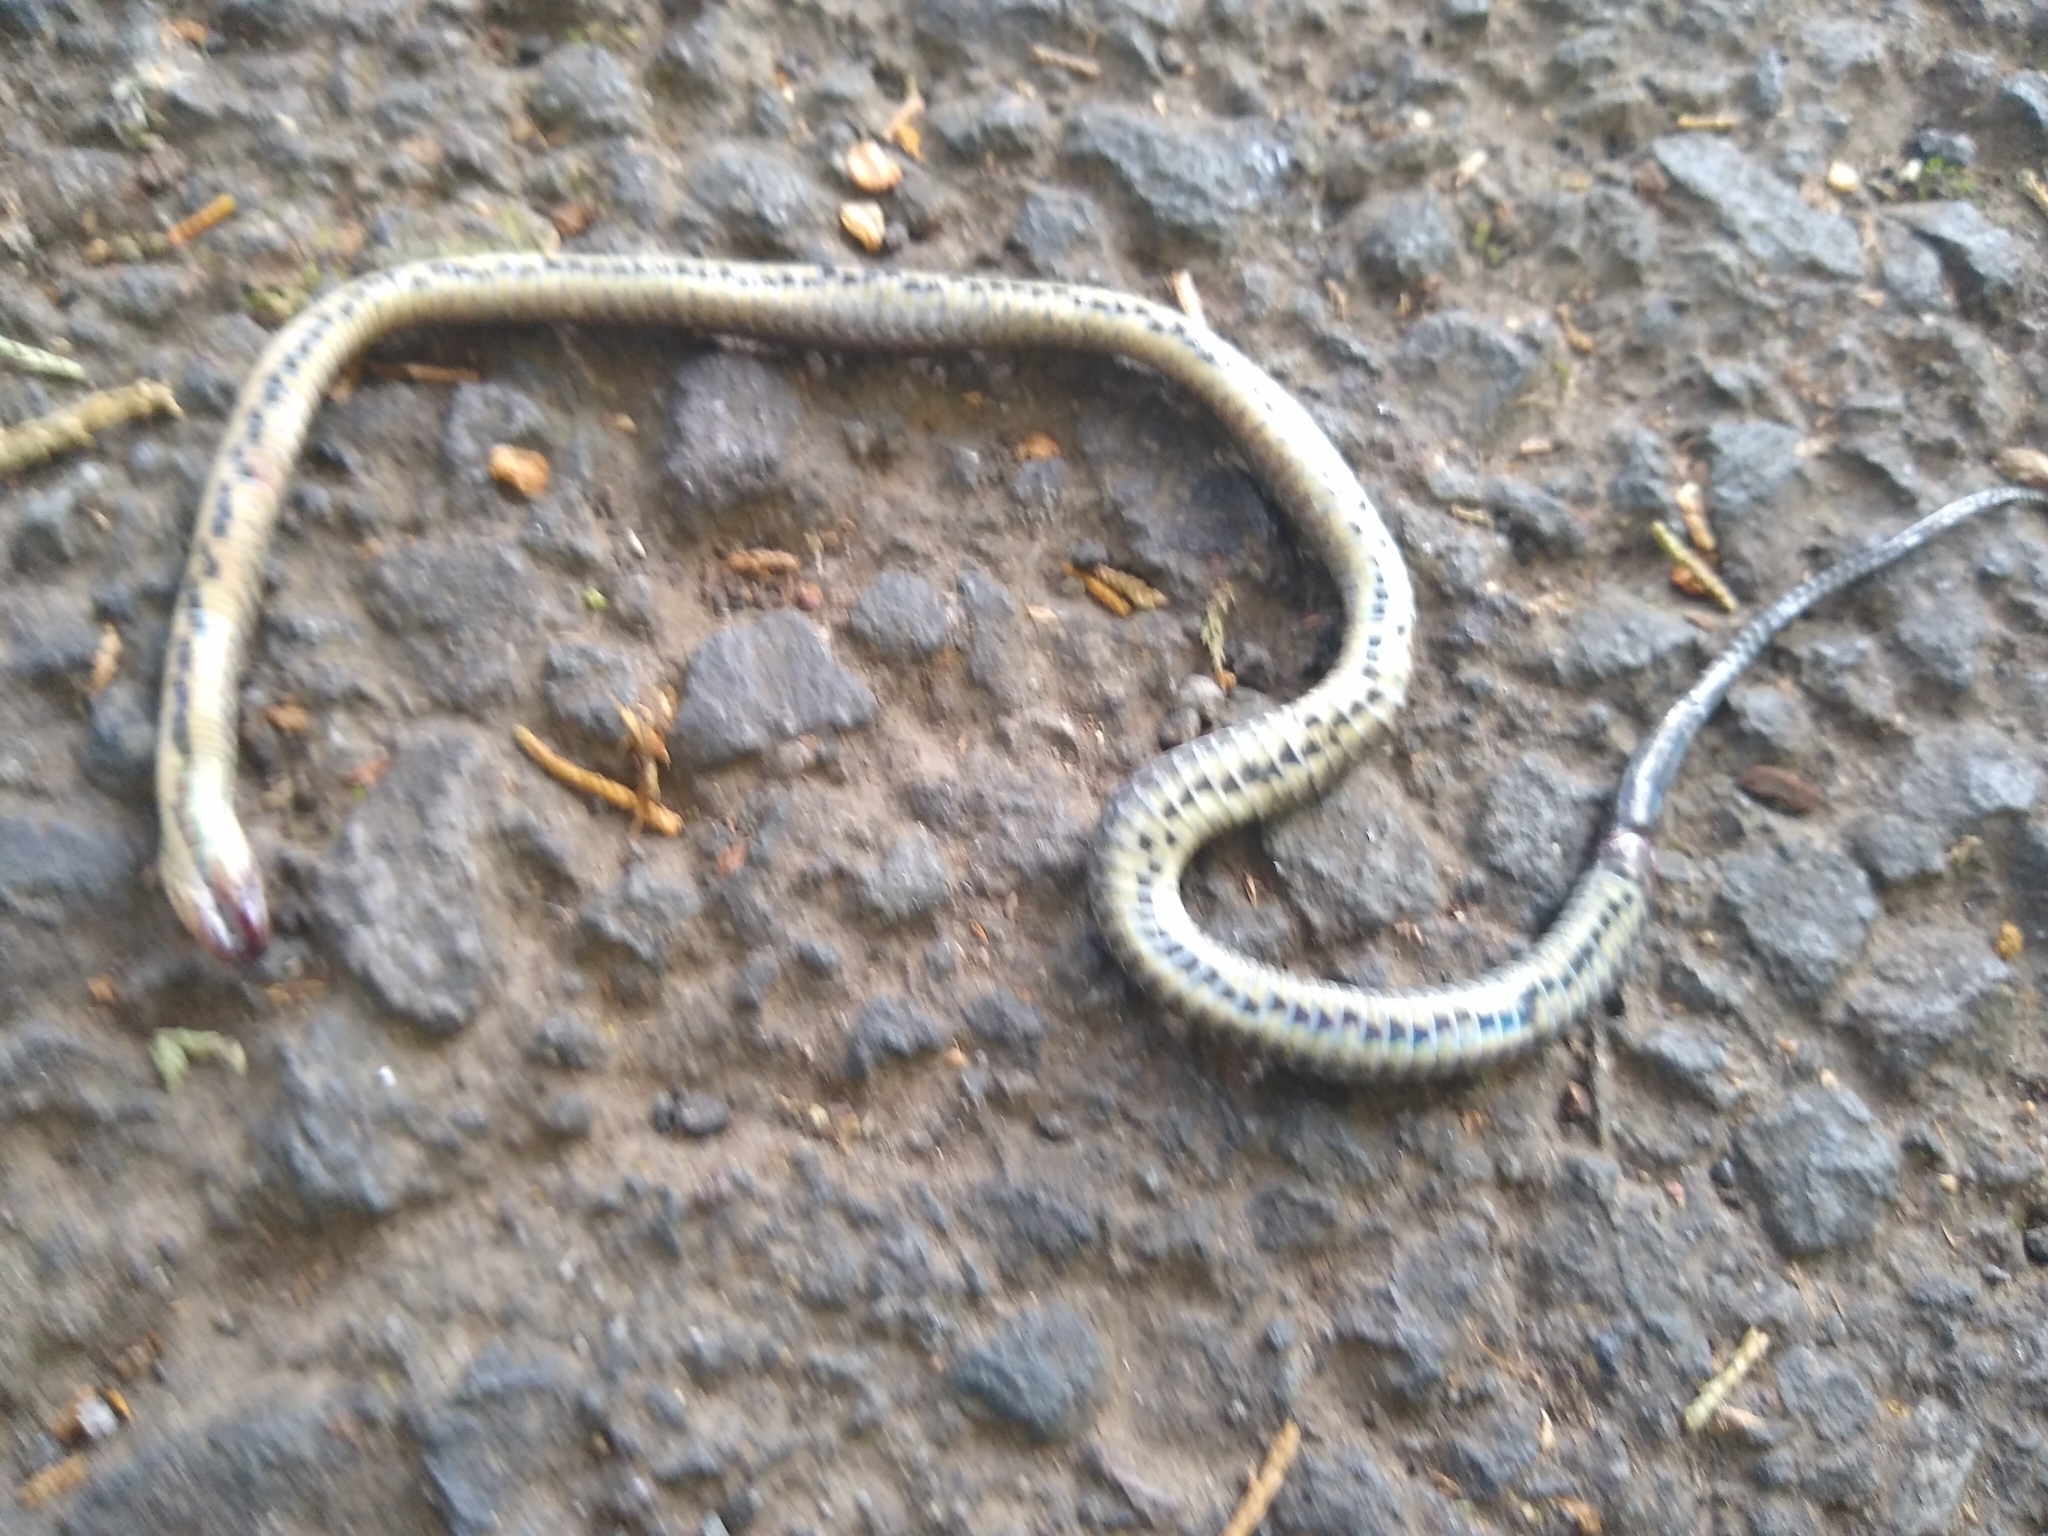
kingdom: Animalia
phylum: Chordata
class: Squamata
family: Colubridae
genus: Ninia
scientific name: Ninia maculata
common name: Spotted coffee snake
